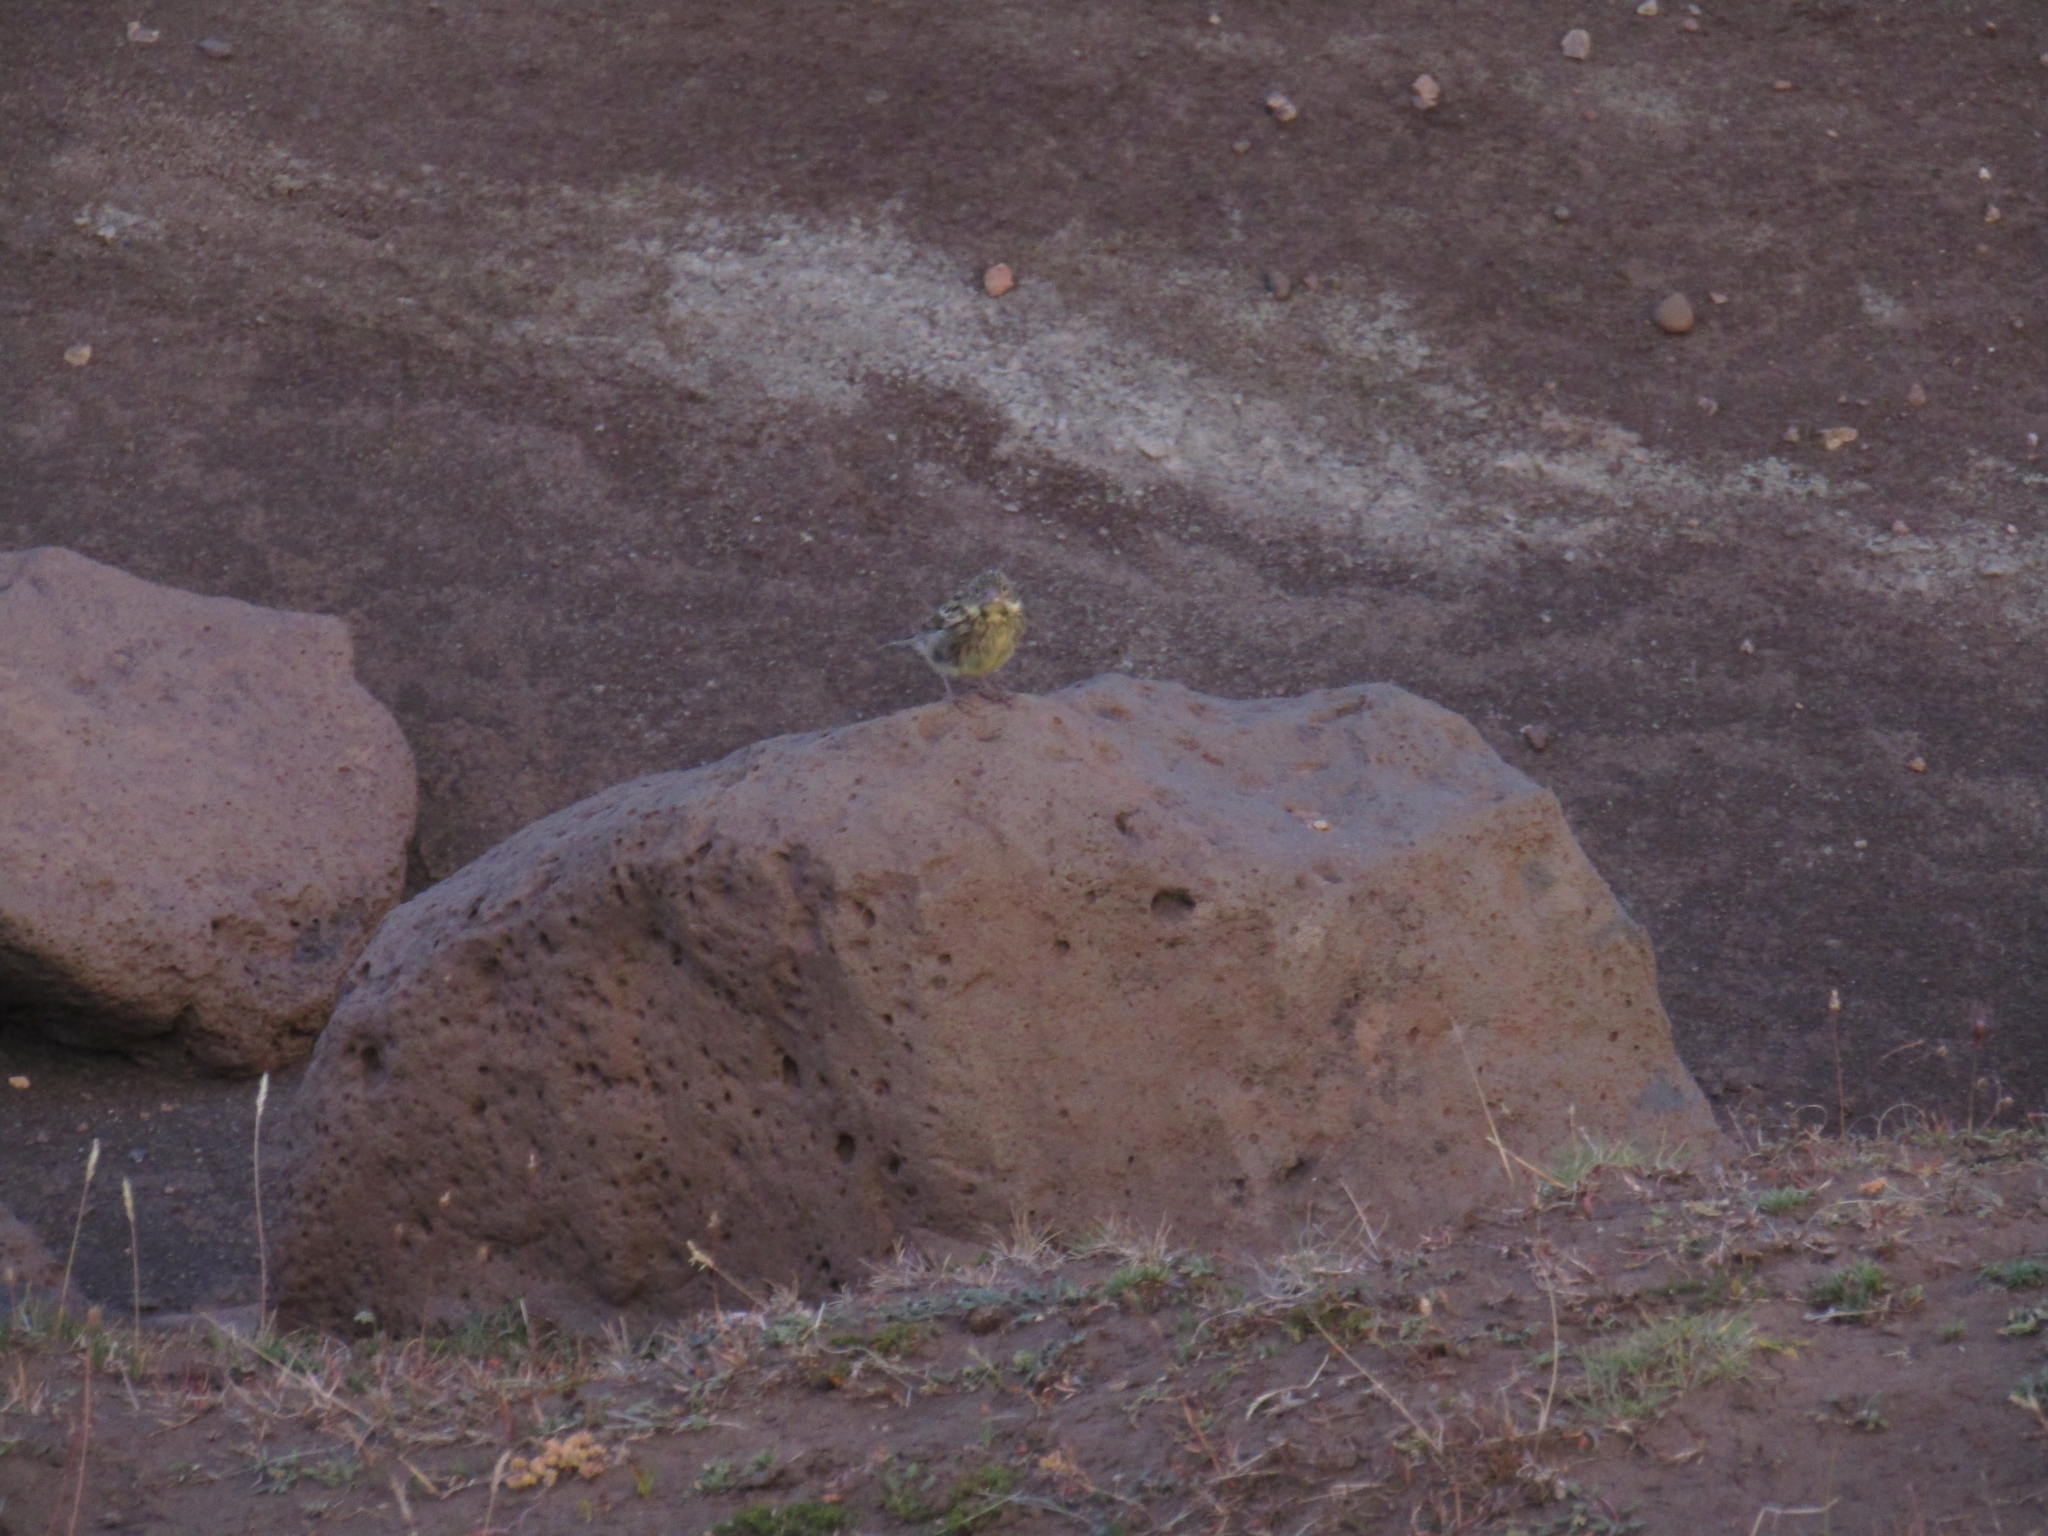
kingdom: Animalia
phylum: Chordata
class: Aves
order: Passeriformes
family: Thraupidae
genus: Melanodera
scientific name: Melanodera xanthogramma
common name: Yellow-bridled finch
